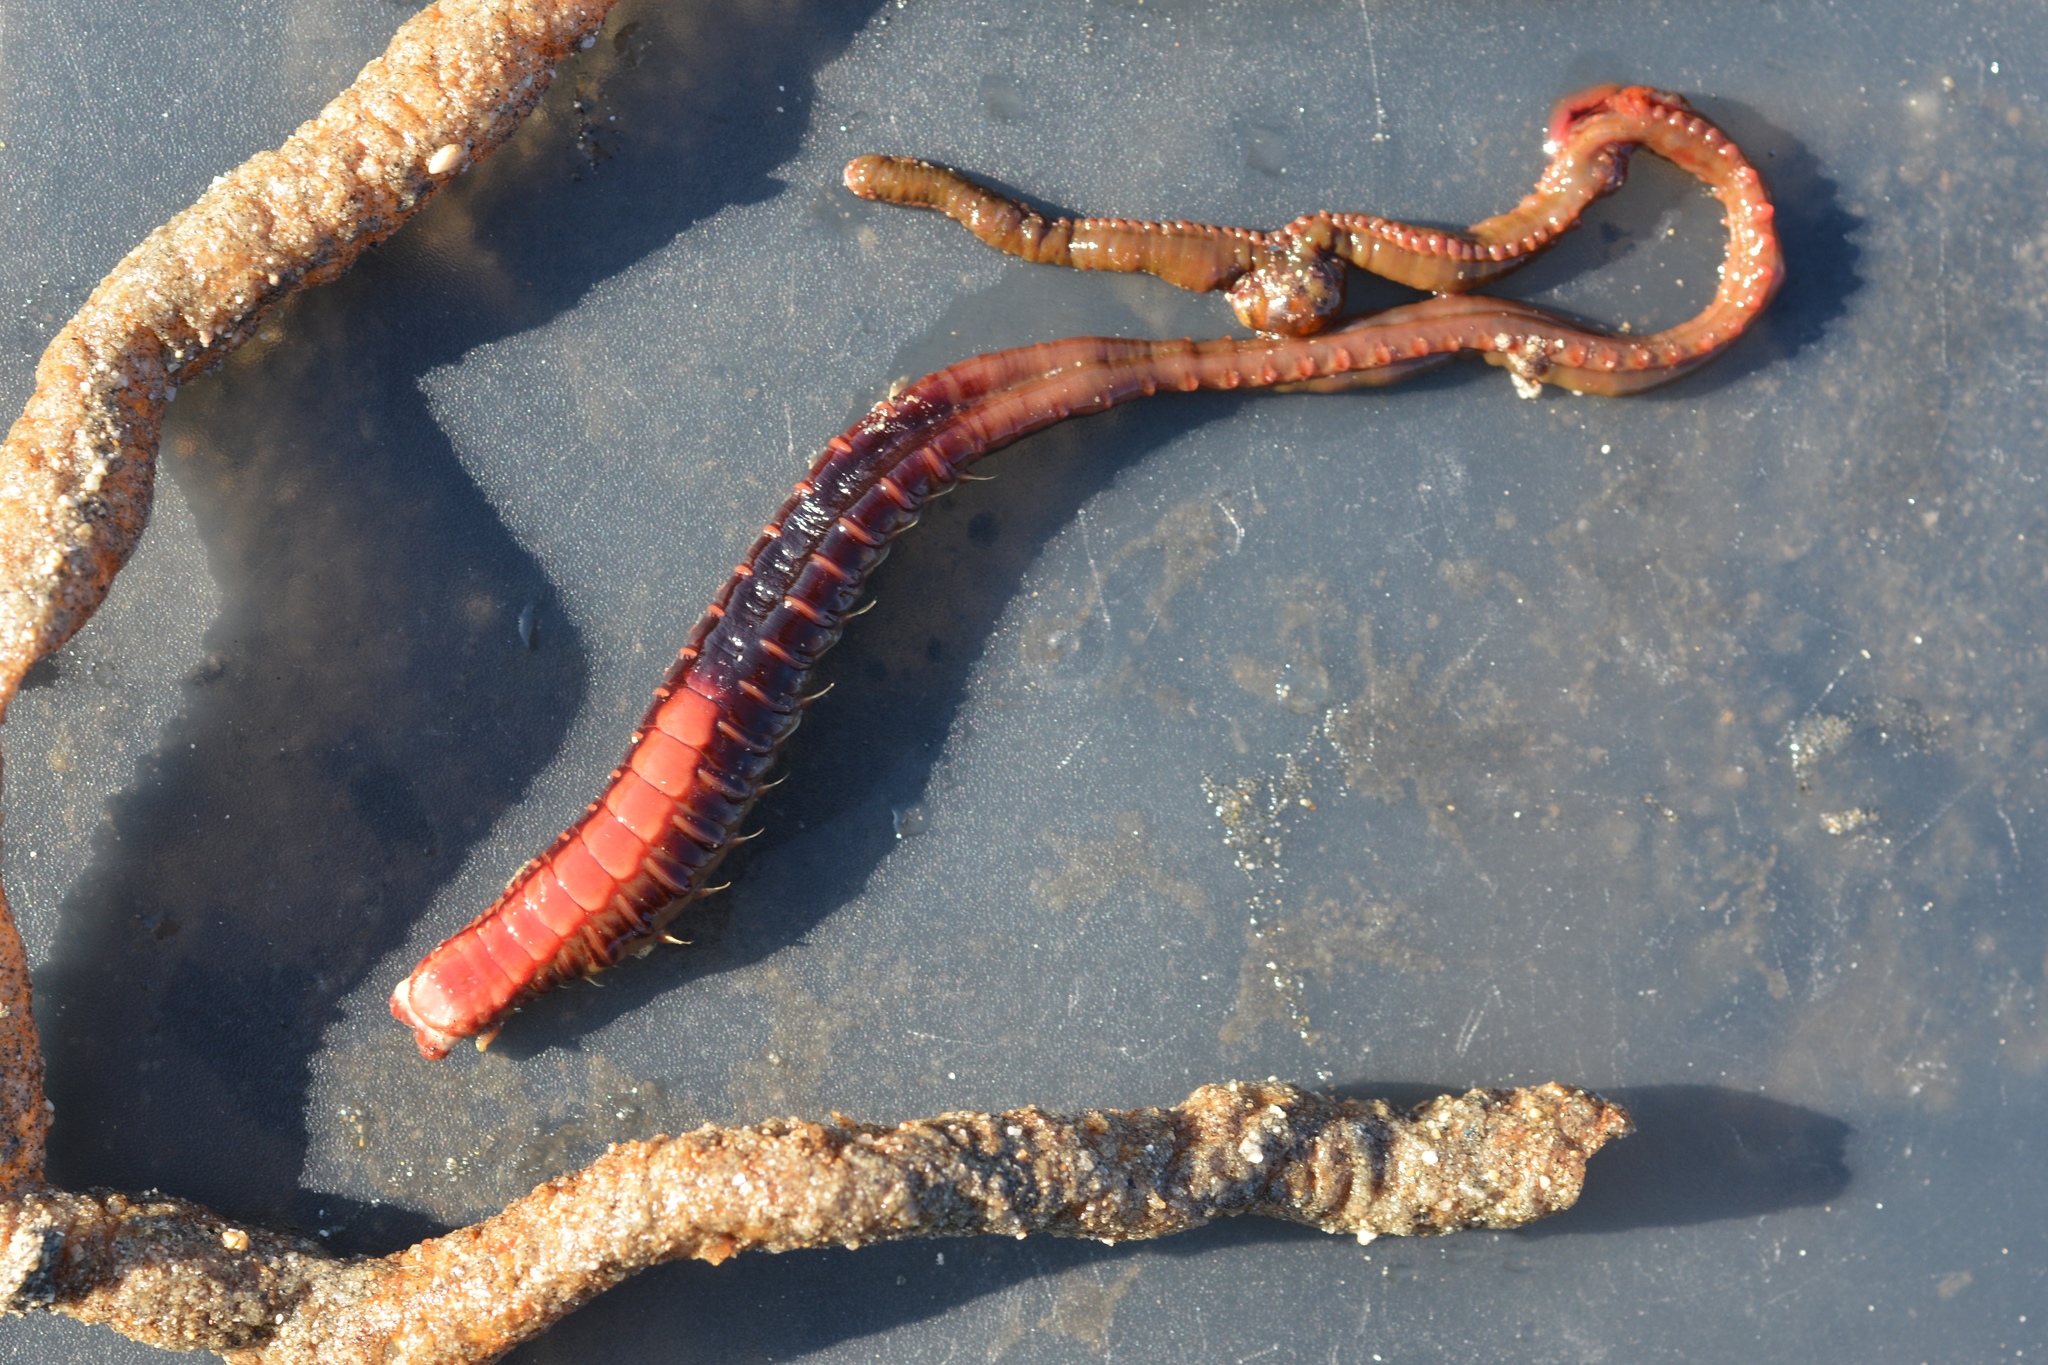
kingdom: Animalia
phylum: Annelida
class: Polychaeta
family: Terebellidae
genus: Pista
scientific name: Pista pacifica
